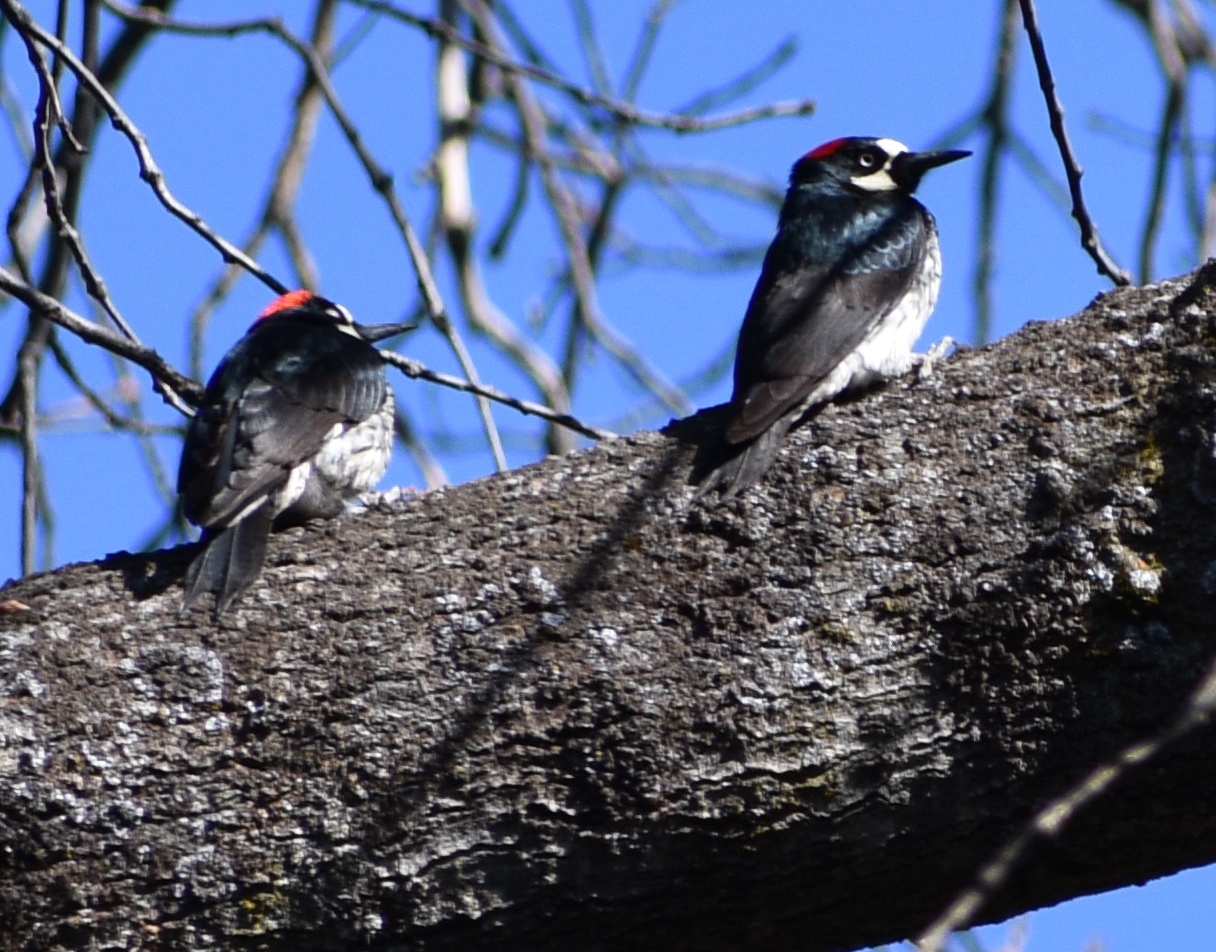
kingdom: Animalia
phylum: Chordata
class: Aves
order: Piciformes
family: Picidae
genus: Melanerpes
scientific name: Melanerpes formicivorus
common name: Acorn woodpecker
